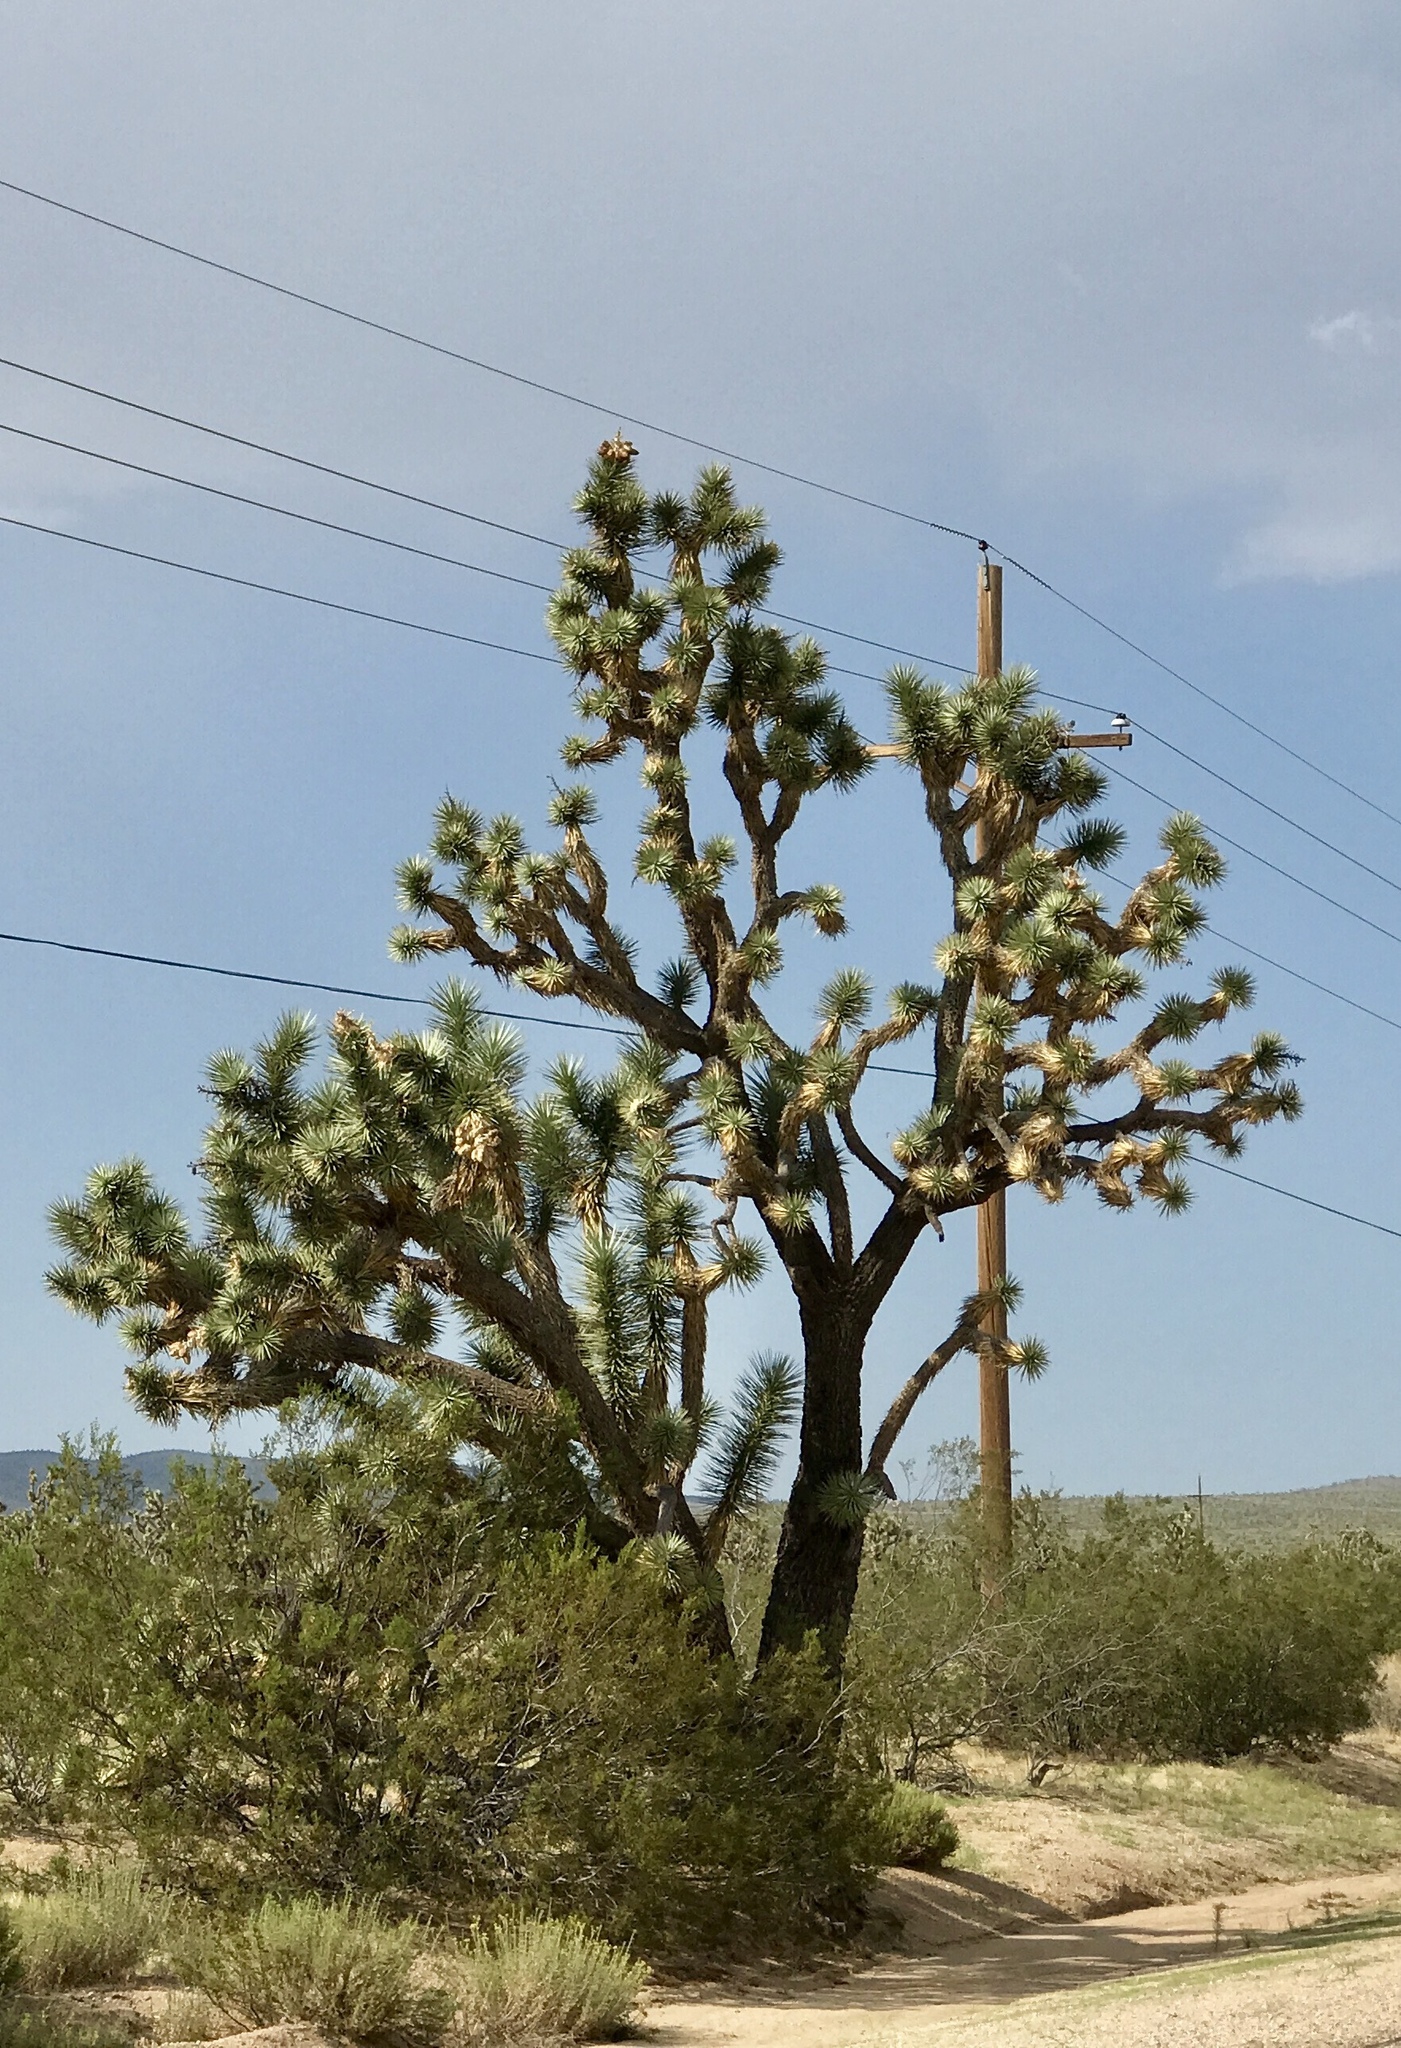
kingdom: Plantae
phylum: Tracheophyta
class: Liliopsida
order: Asparagales
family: Asparagaceae
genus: Yucca
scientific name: Yucca brevifolia
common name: Joshua tree
